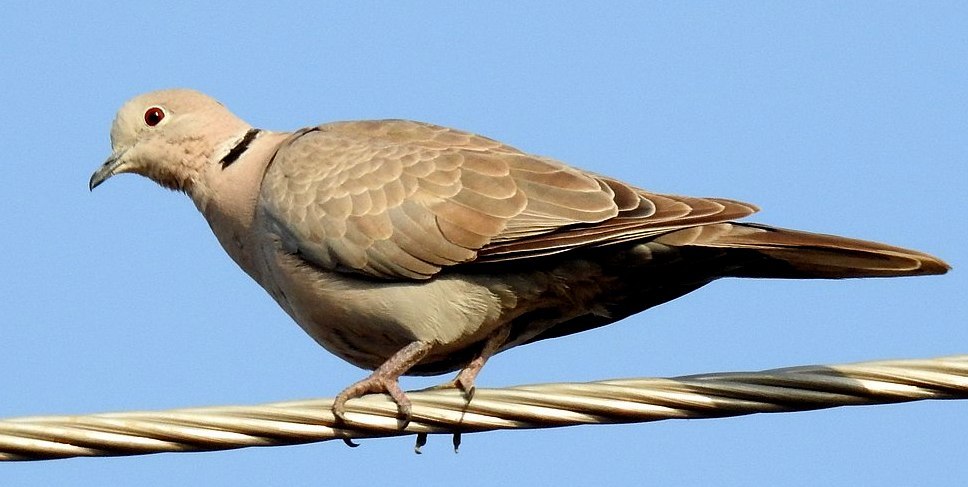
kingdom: Animalia
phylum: Chordata
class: Aves
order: Columbiformes
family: Columbidae
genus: Streptopelia
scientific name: Streptopelia decaocto
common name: Eurasian collared dove
